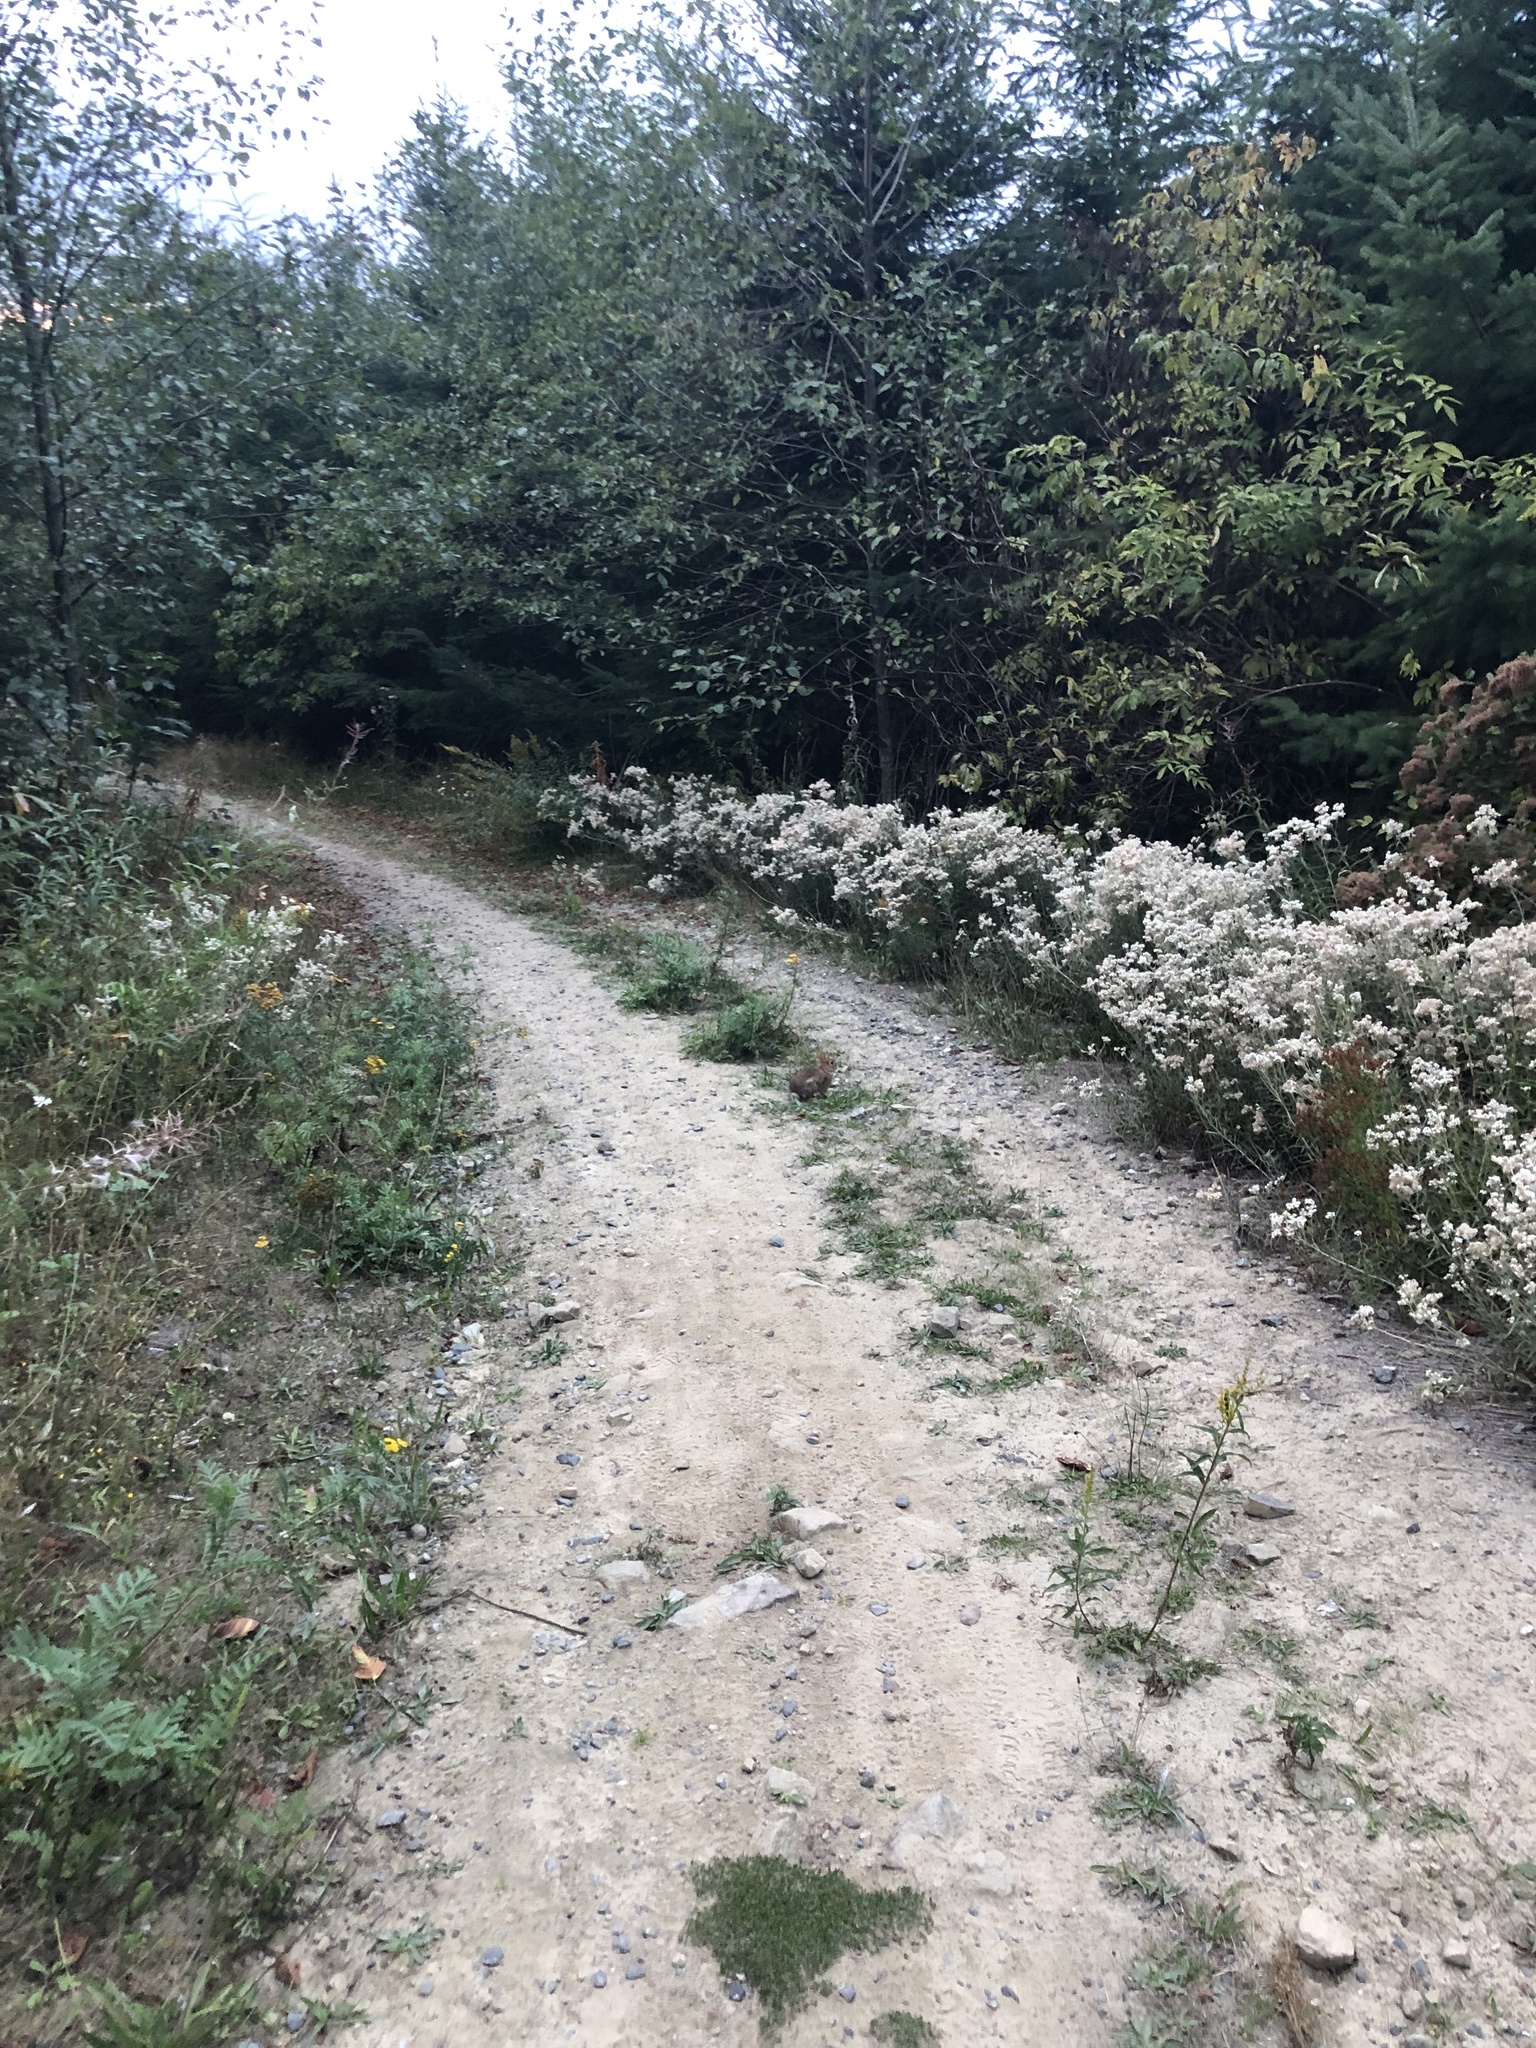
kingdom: Animalia
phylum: Chordata
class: Mammalia
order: Lagomorpha
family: Leporidae
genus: Sylvilagus
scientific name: Sylvilagus floridanus
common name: Eastern cottontail
